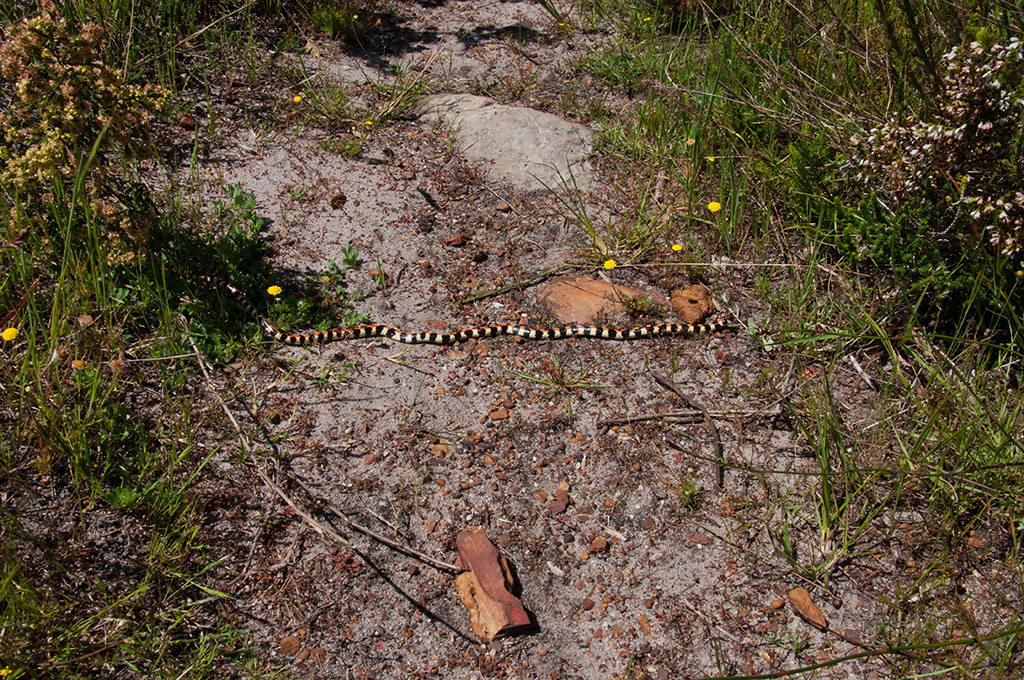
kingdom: Animalia
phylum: Chordata
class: Squamata
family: Atractaspididae
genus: Homoroselaps
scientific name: Homoroselaps lacteus
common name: Spotted harlequin snake
